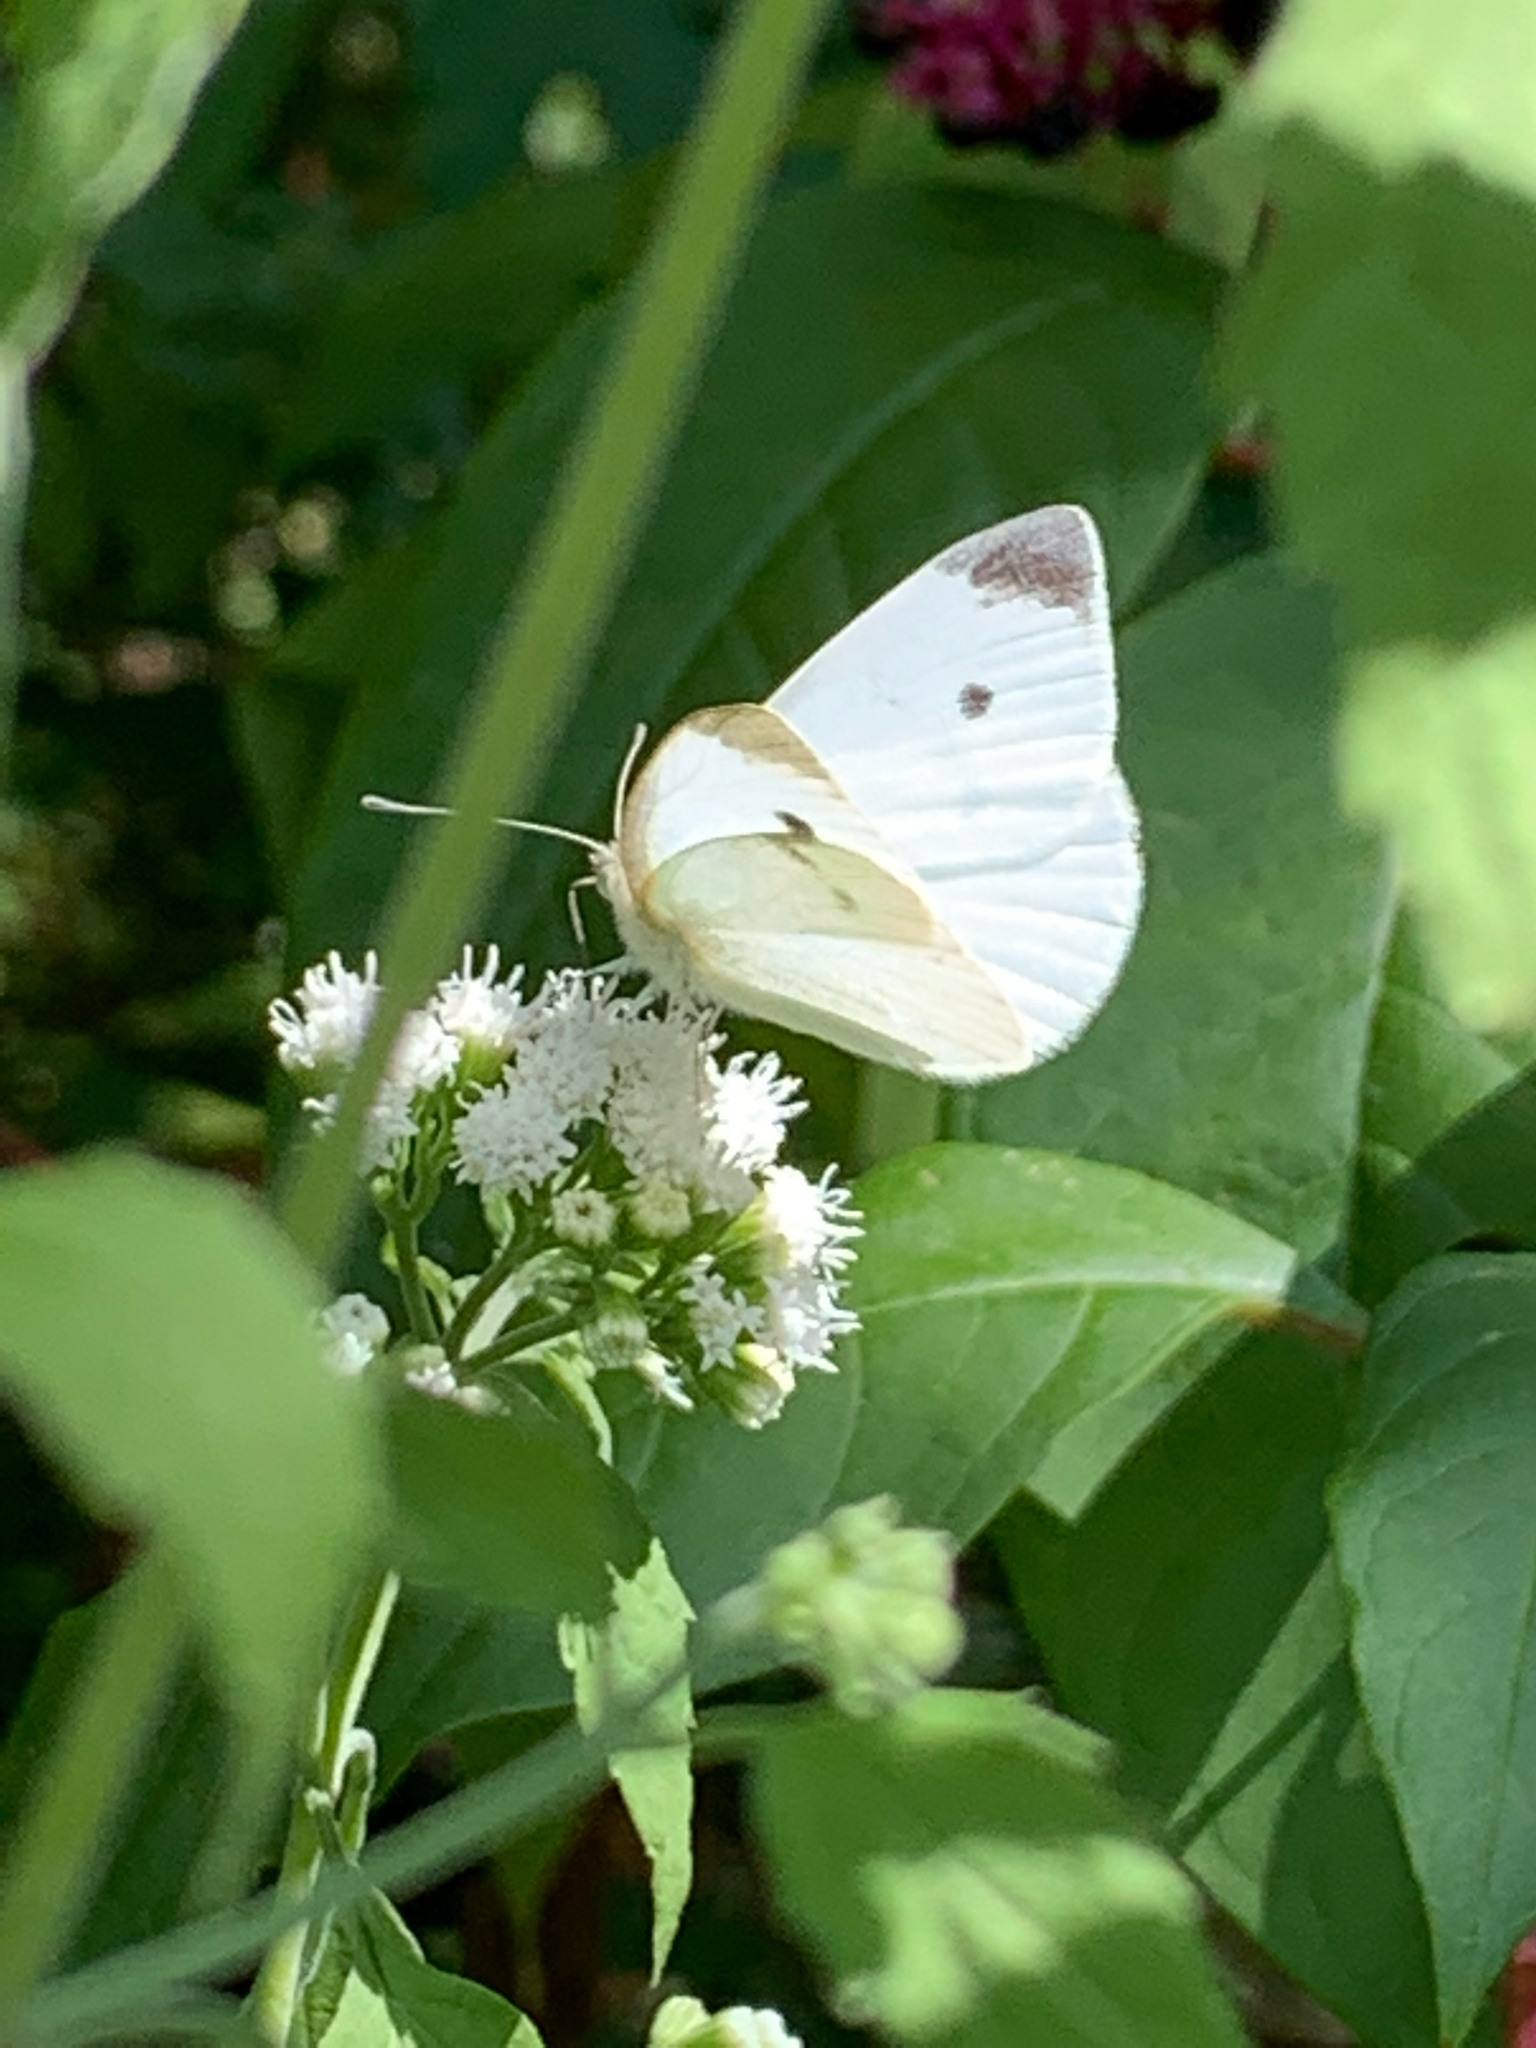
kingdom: Animalia
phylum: Arthropoda
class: Insecta
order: Lepidoptera
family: Pieridae
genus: Pieris
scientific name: Pieris rapae
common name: Small white
